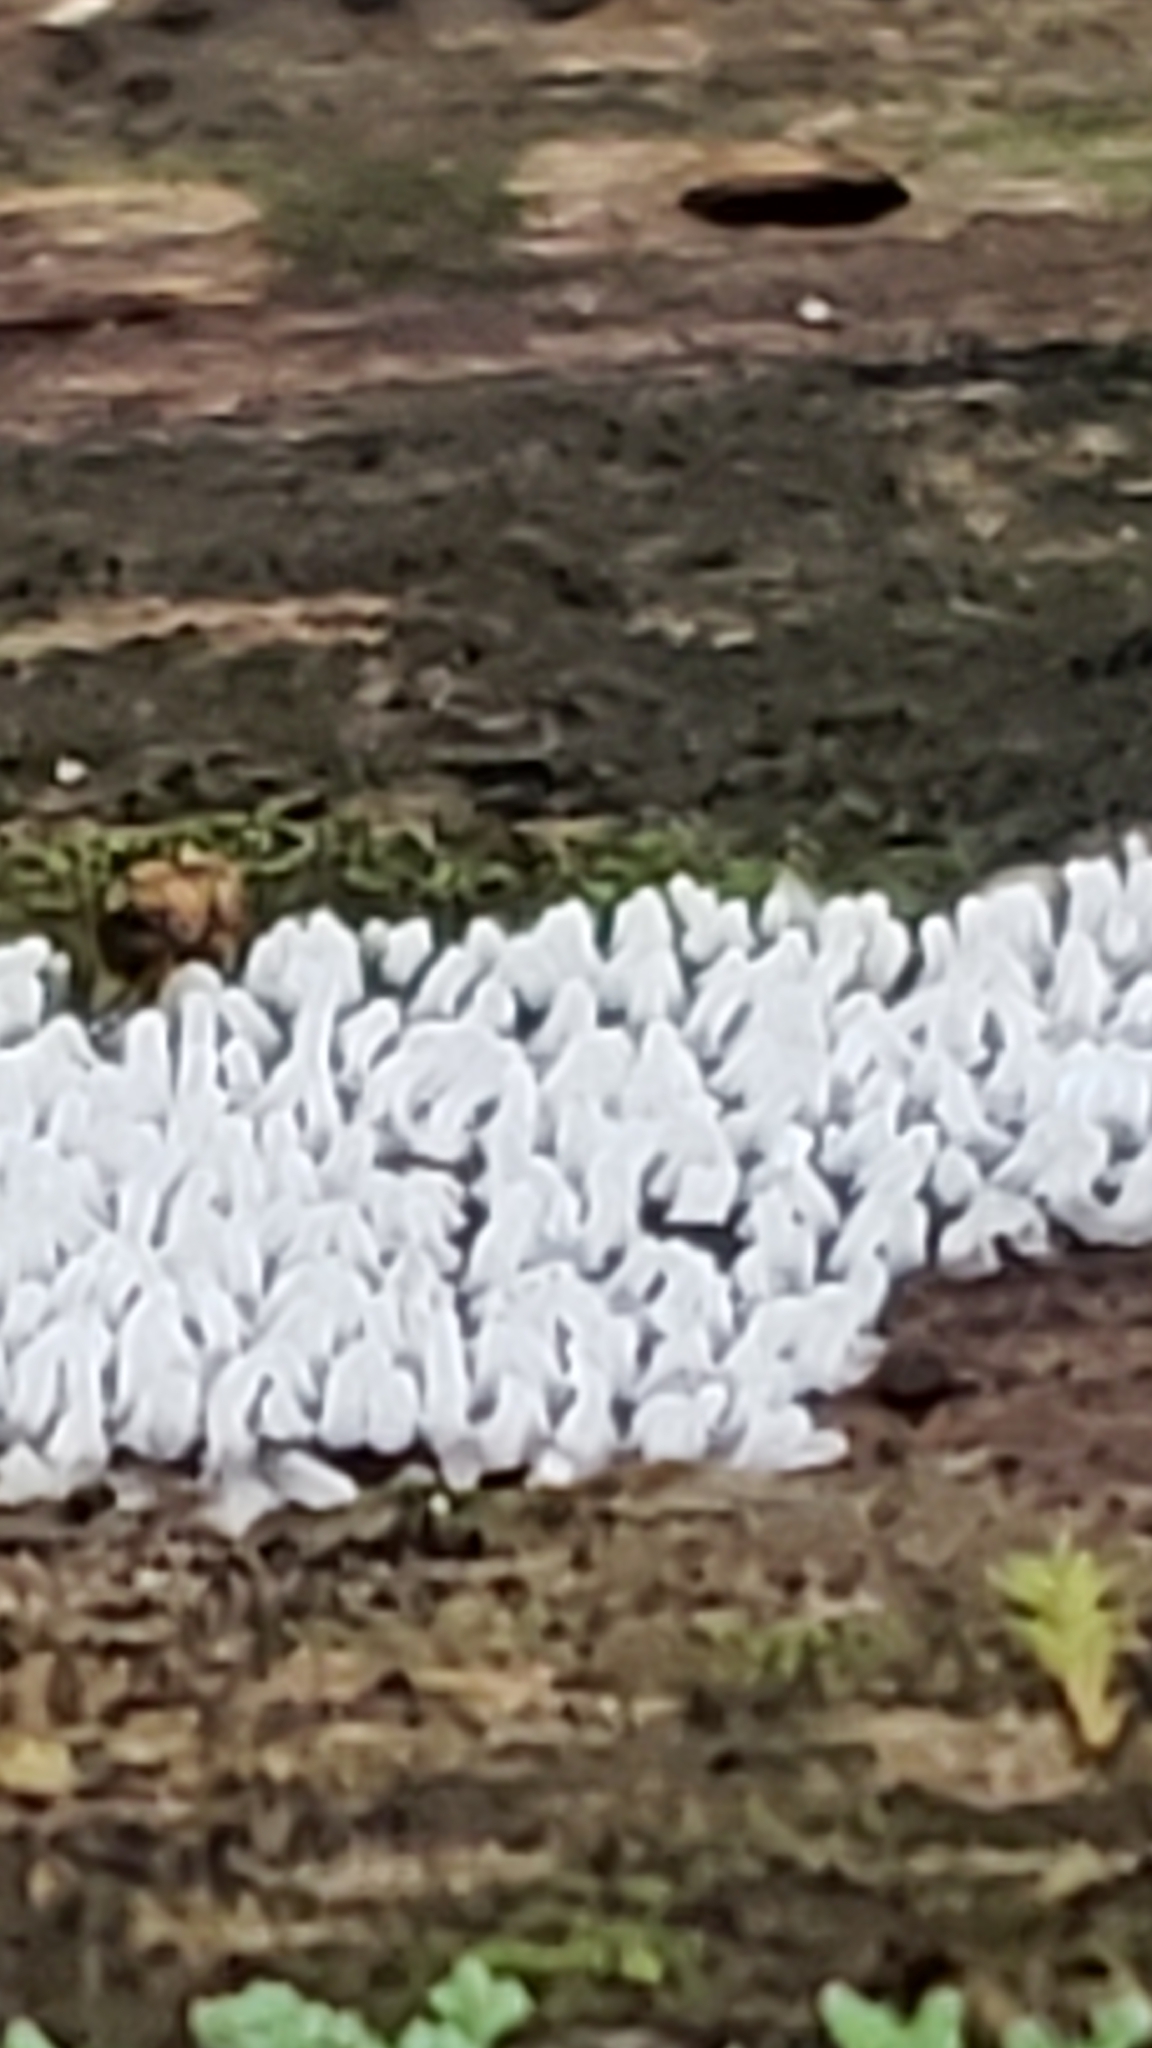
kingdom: Protozoa
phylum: Mycetozoa
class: Protosteliomycetes
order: Ceratiomyxales
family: Ceratiomyxaceae
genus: Ceratiomyxa
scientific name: Ceratiomyxa fruticulosa
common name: Honeycomb coral slime mold
